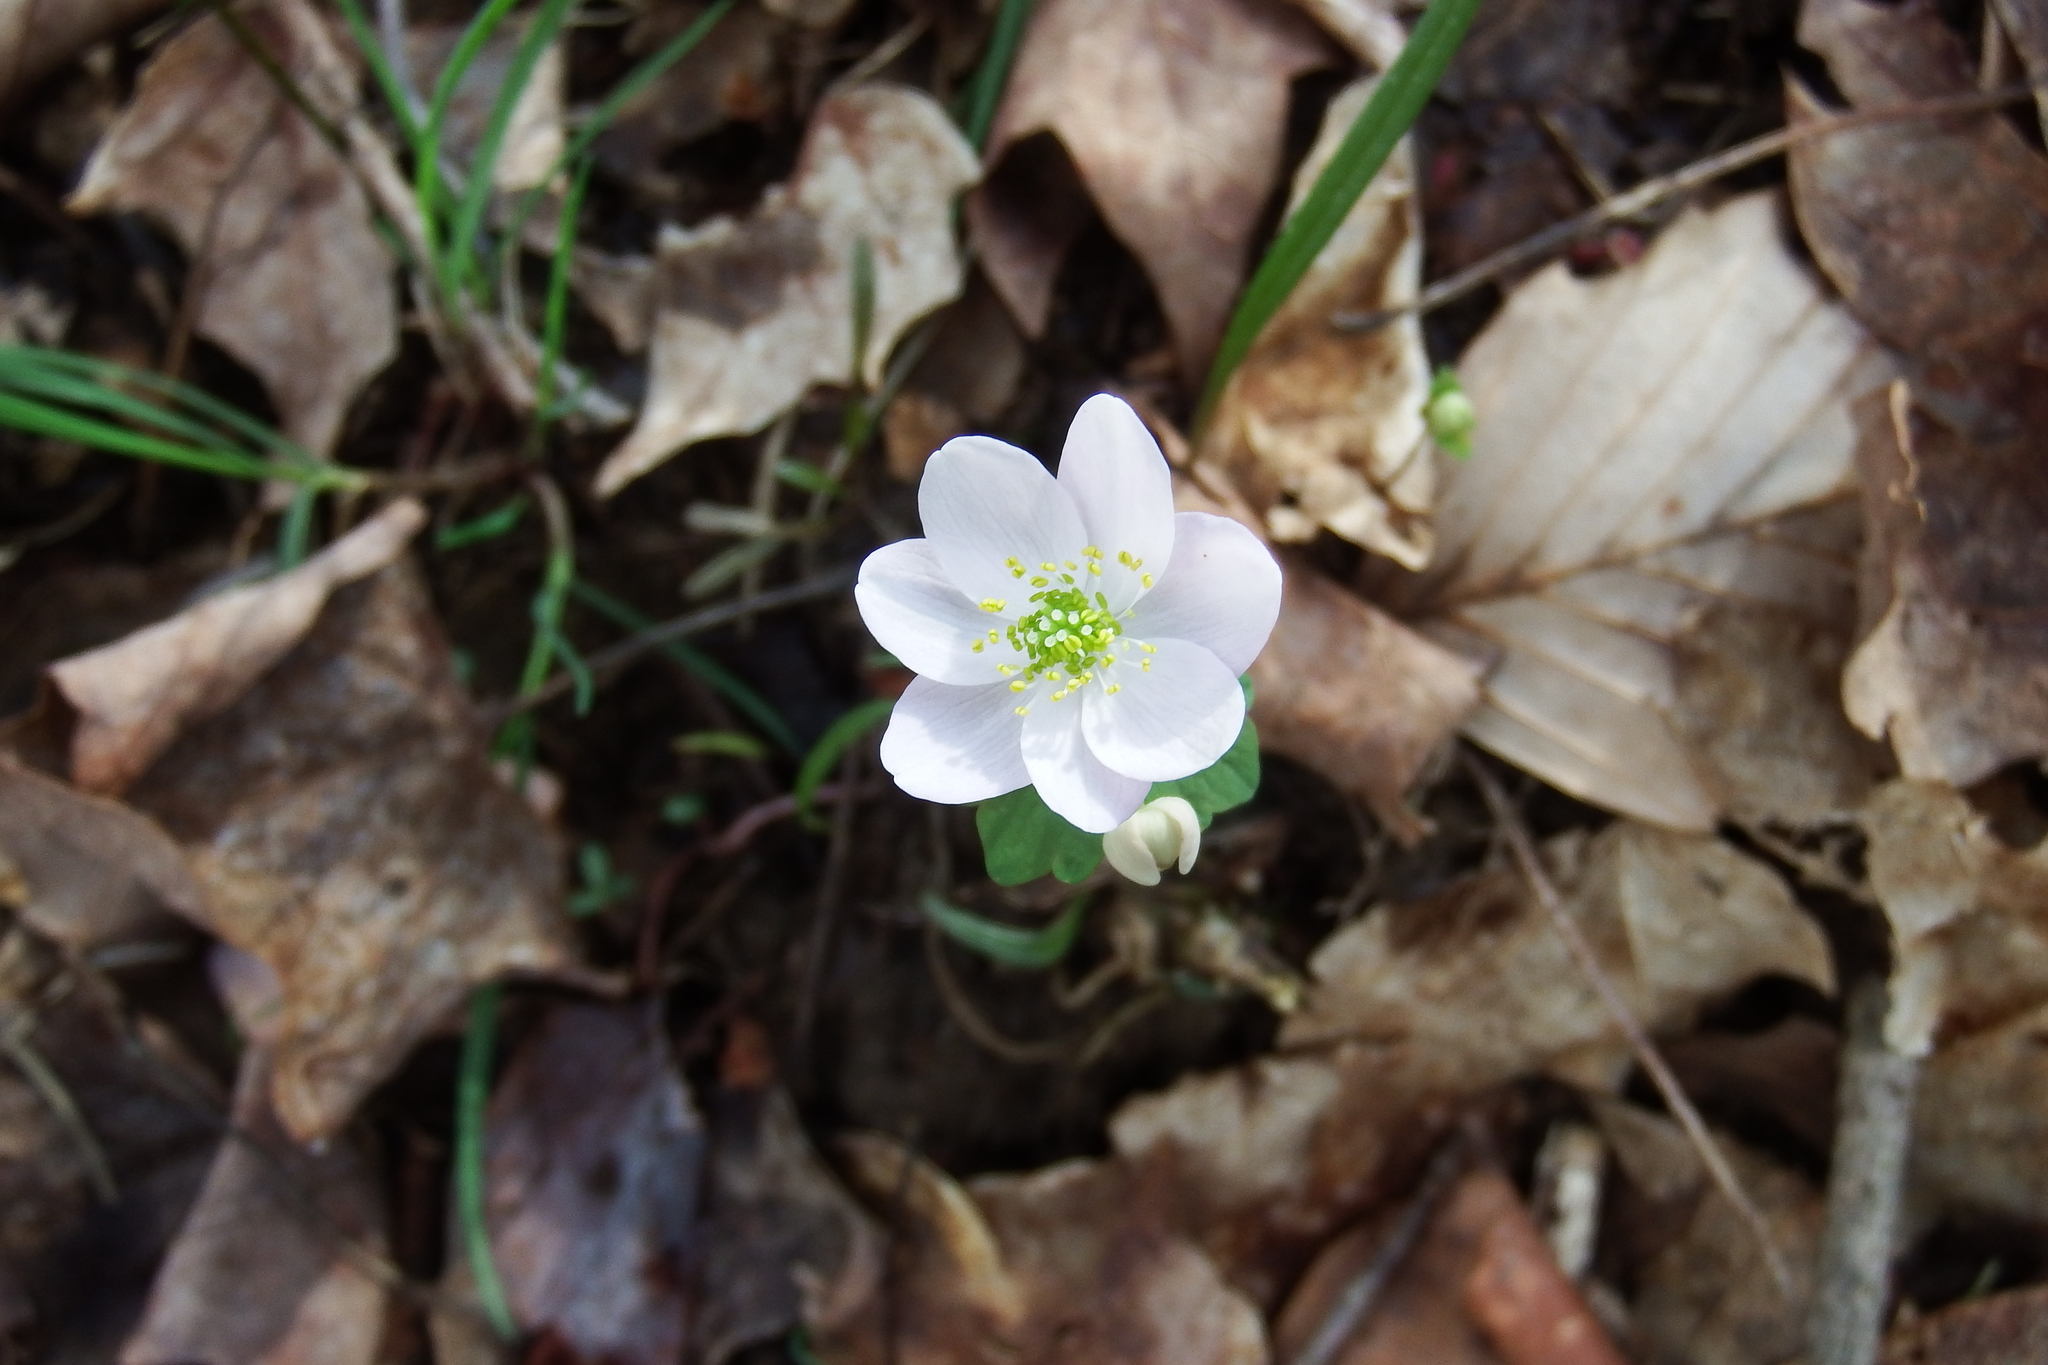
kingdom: Plantae
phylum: Tracheophyta
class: Magnoliopsida
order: Ranunculales
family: Ranunculaceae
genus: Thalictrum
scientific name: Thalictrum thalictroides
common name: Rue-anemone
